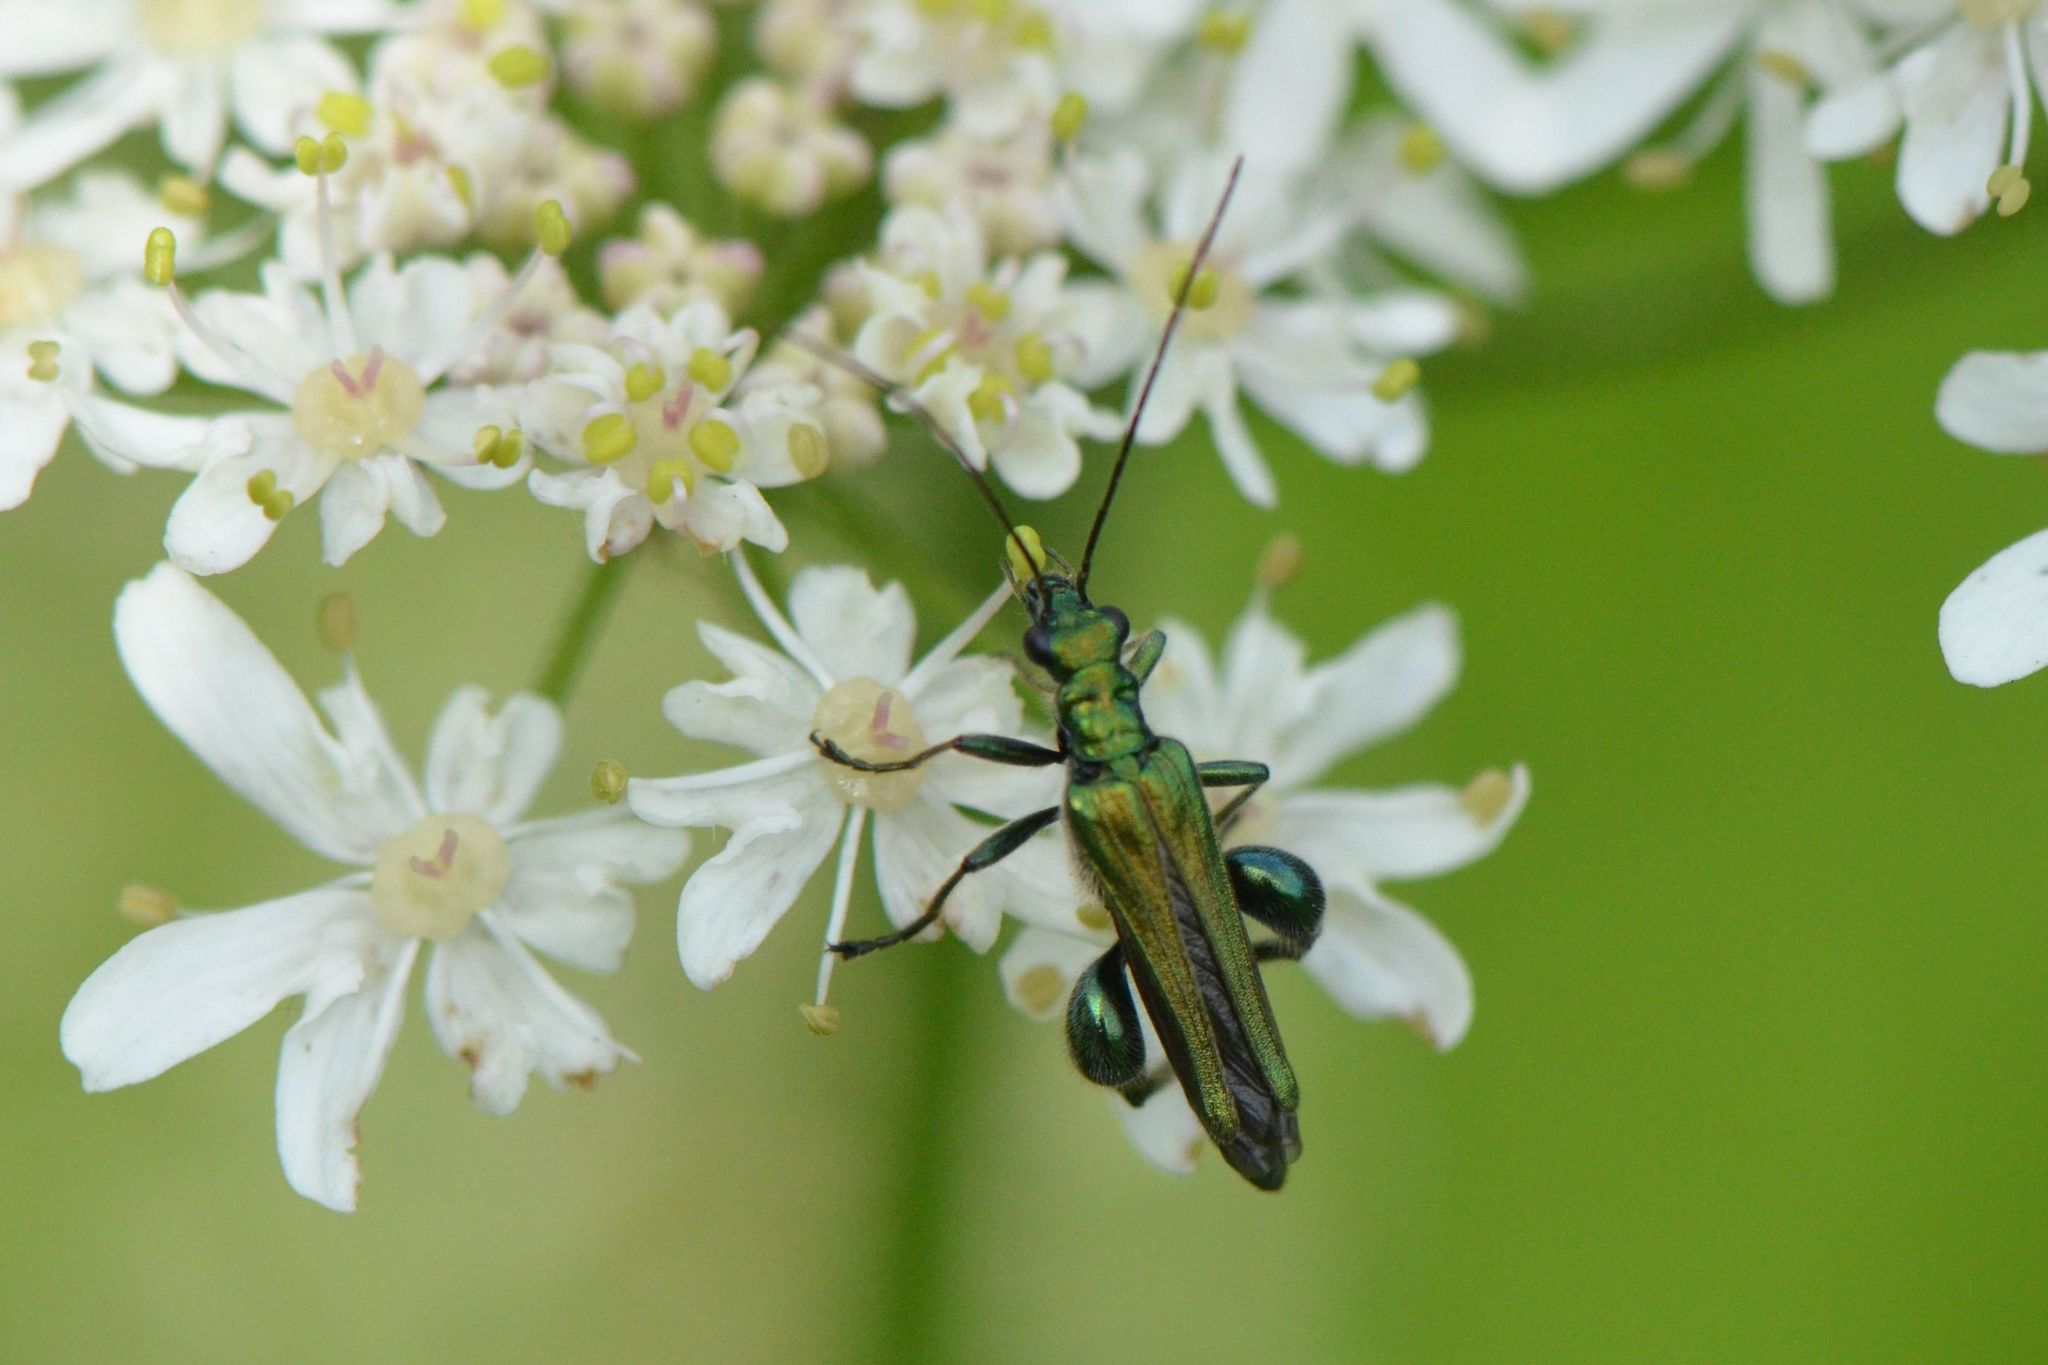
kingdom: Animalia
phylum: Arthropoda
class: Insecta
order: Coleoptera
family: Oedemeridae
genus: Oedemera
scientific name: Oedemera nobilis
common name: Swollen-thighed beetle
